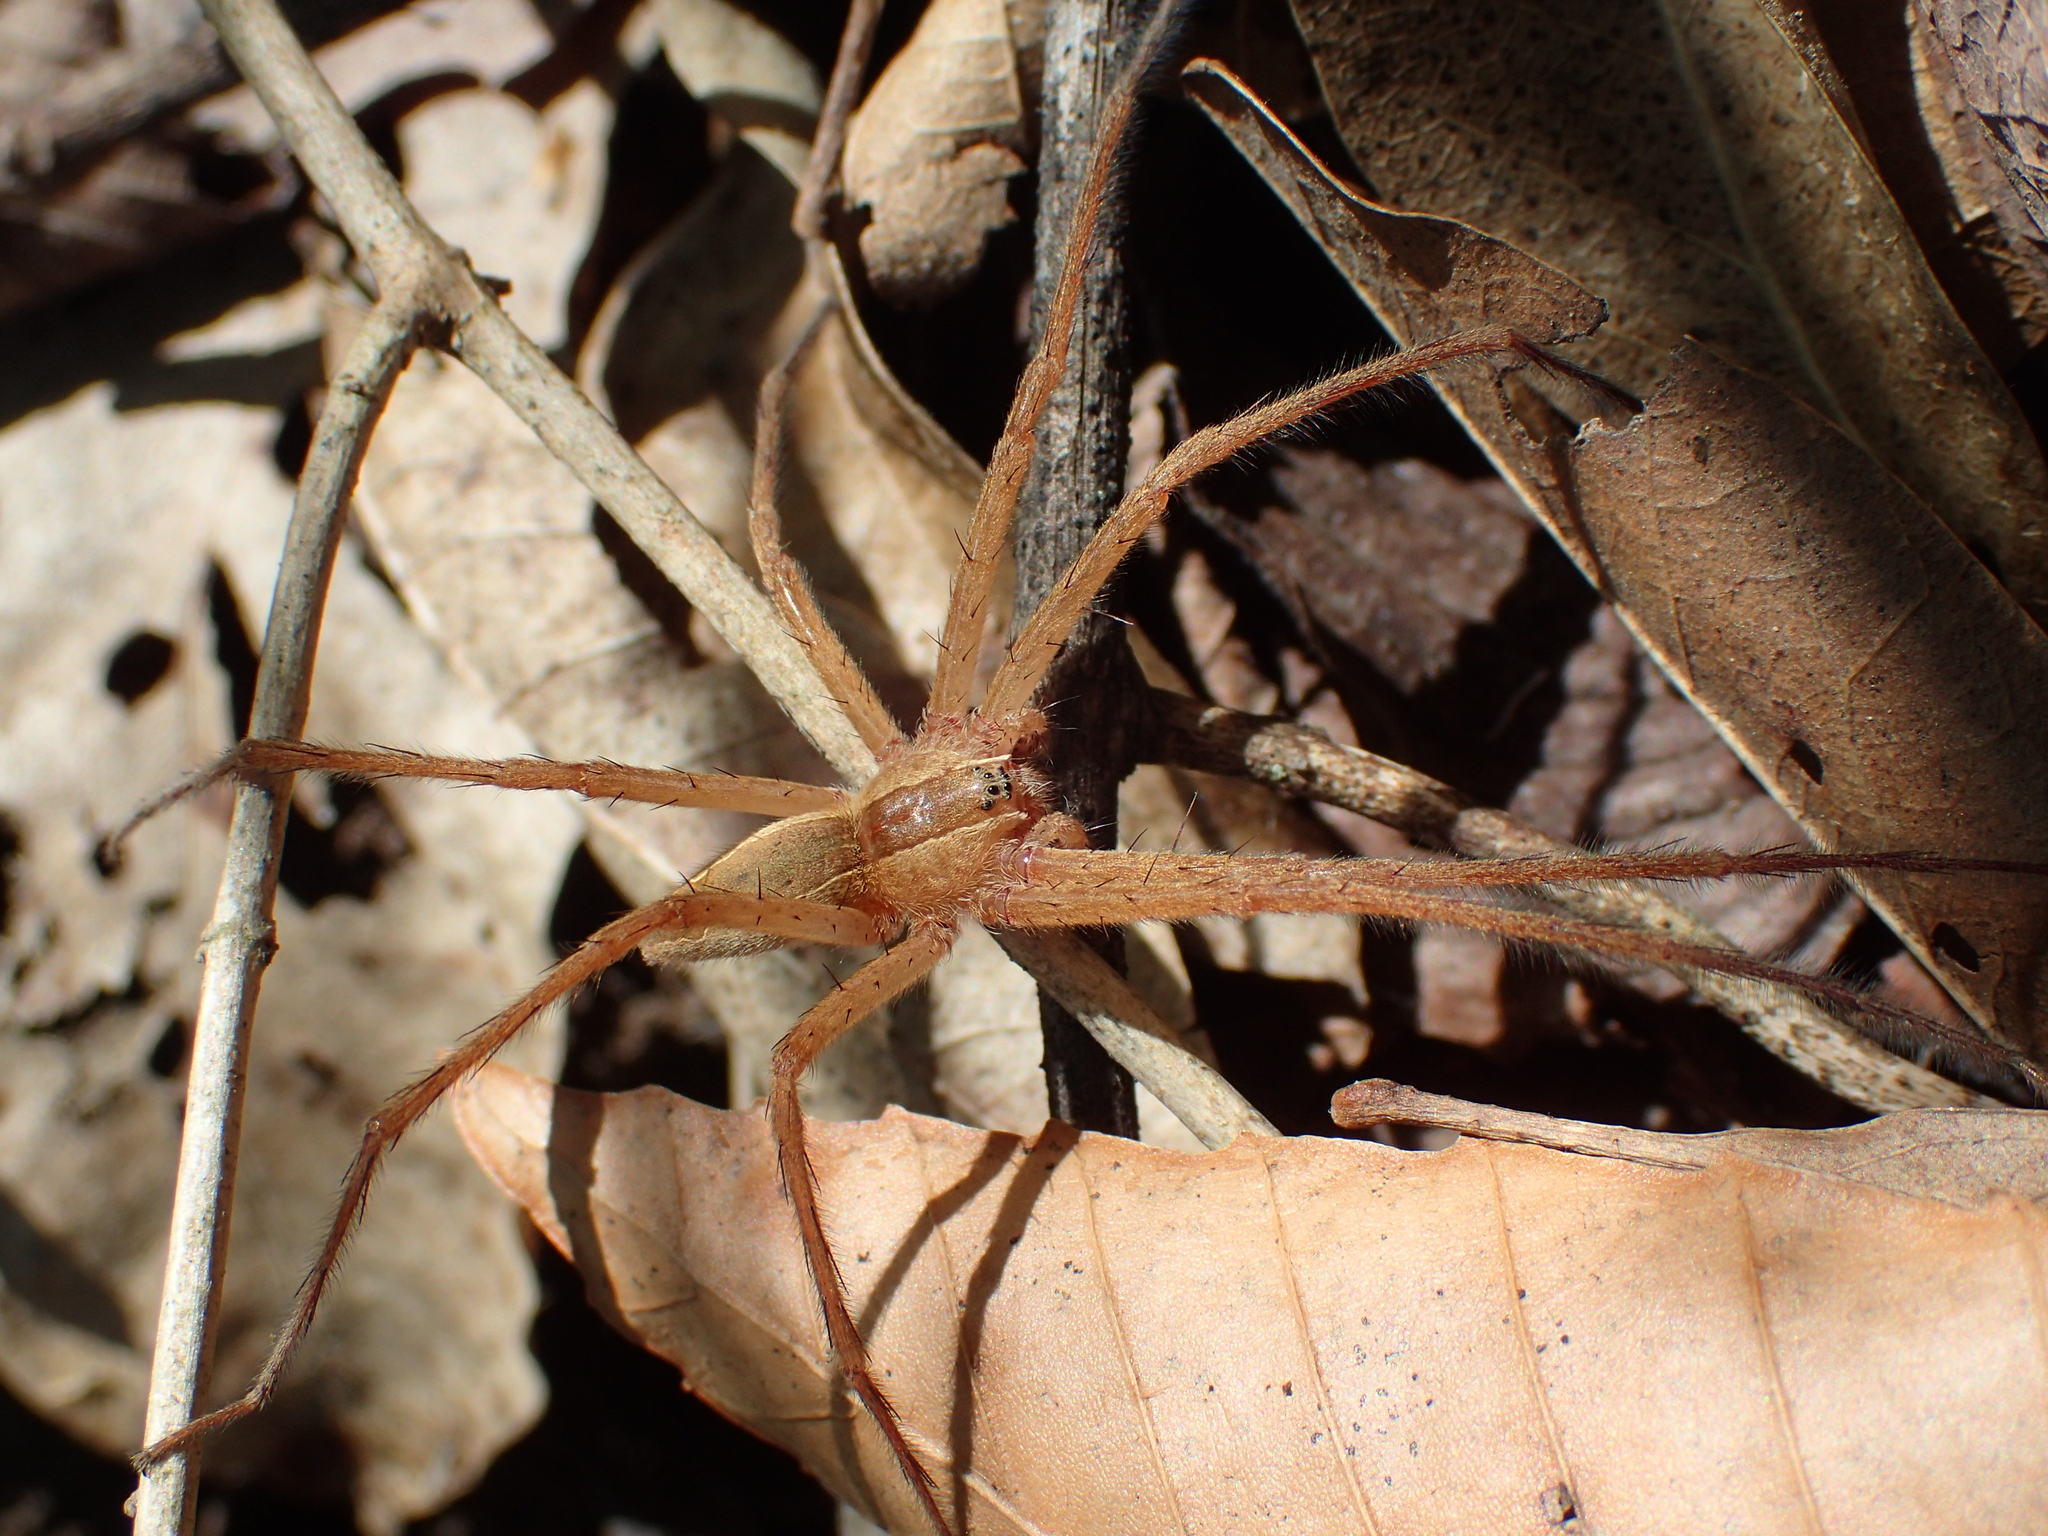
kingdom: Animalia
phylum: Arthropoda
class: Arachnida
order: Araneae
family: Pisauridae
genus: Pisaurina
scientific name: Pisaurina mira
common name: American nursery web spider
